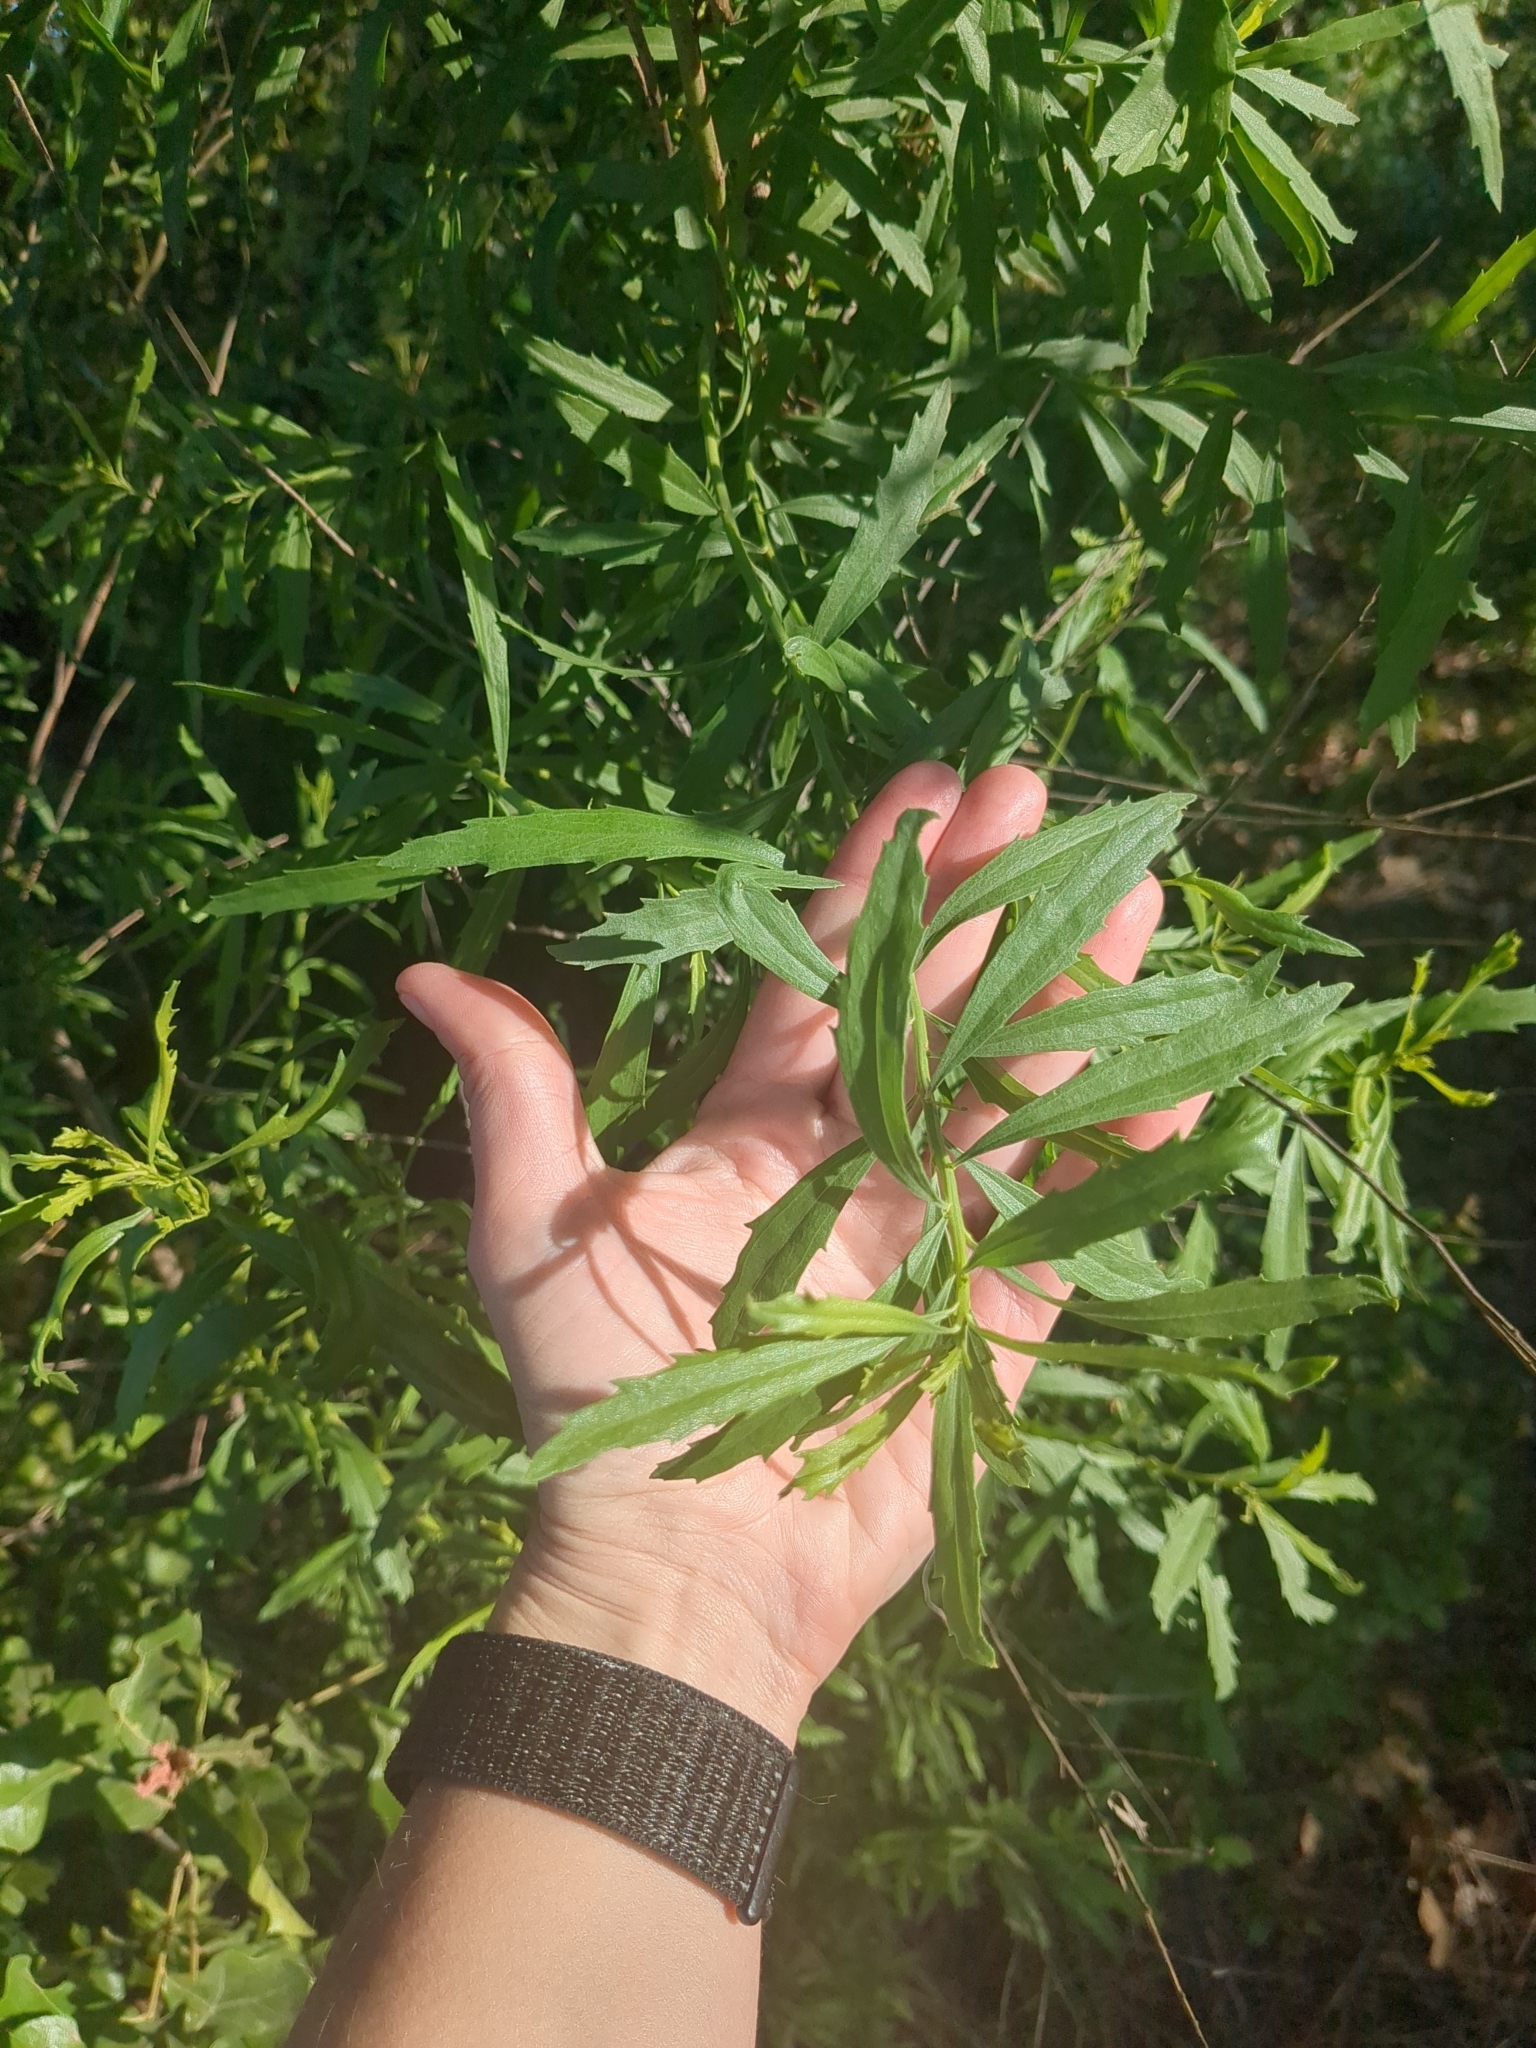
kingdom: Plantae
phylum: Tracheophyta
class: Magnoliopsida
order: Asterales
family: Asteraceae
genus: Baccharis
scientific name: Baccharis neglecta
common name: Roosevelt-weed
